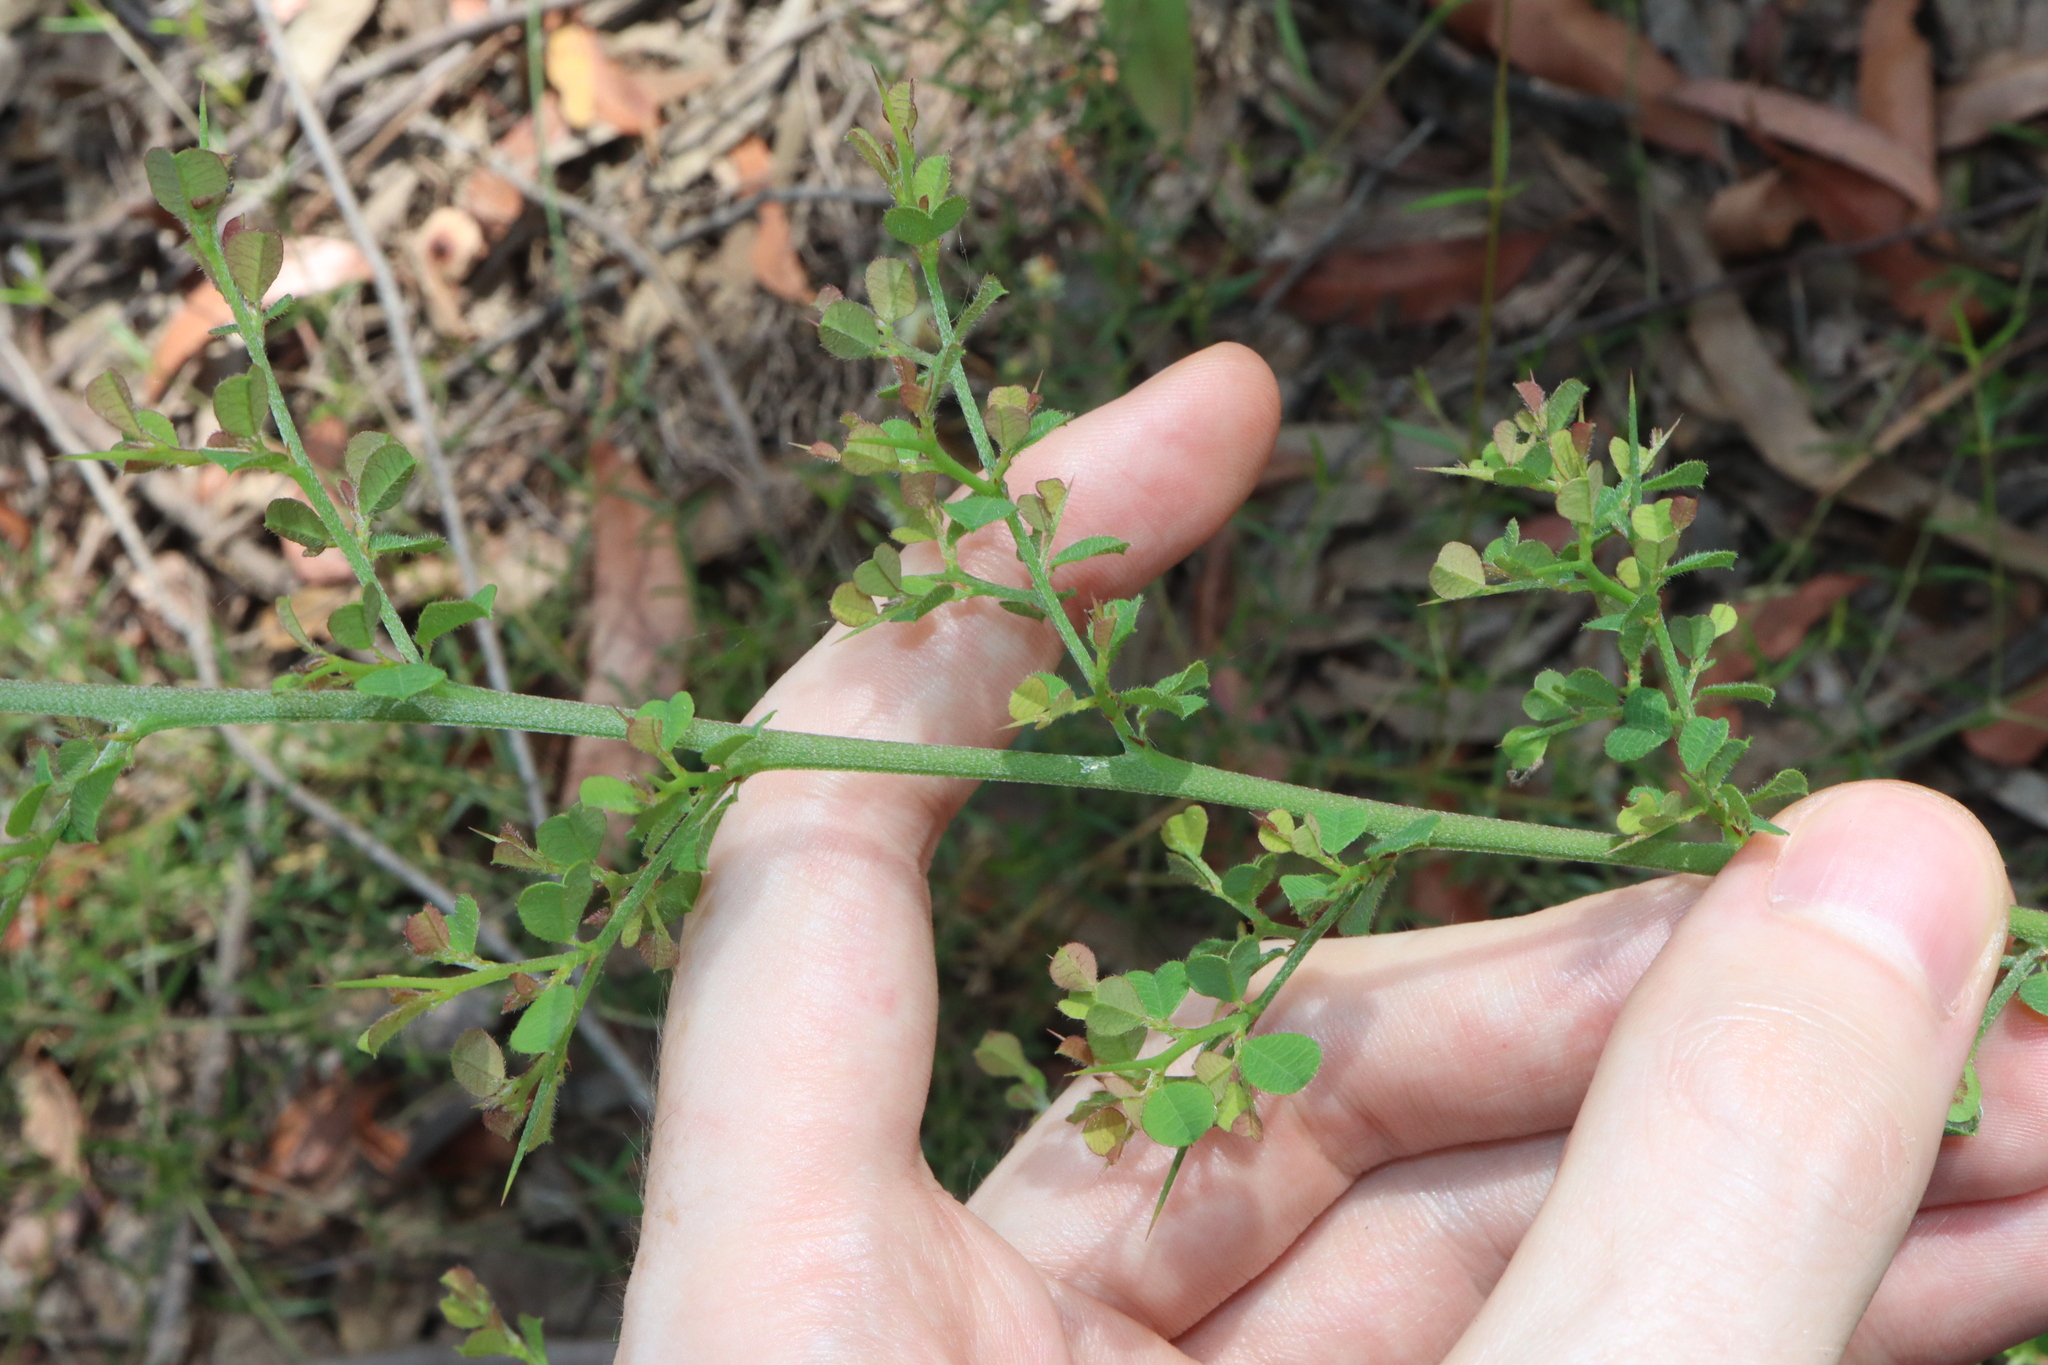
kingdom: Plantae
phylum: Tracheophyta
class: Magnoliopsida
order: Fabales
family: Fabaceae
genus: Bossiaea
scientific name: Bossiaea obcordata
